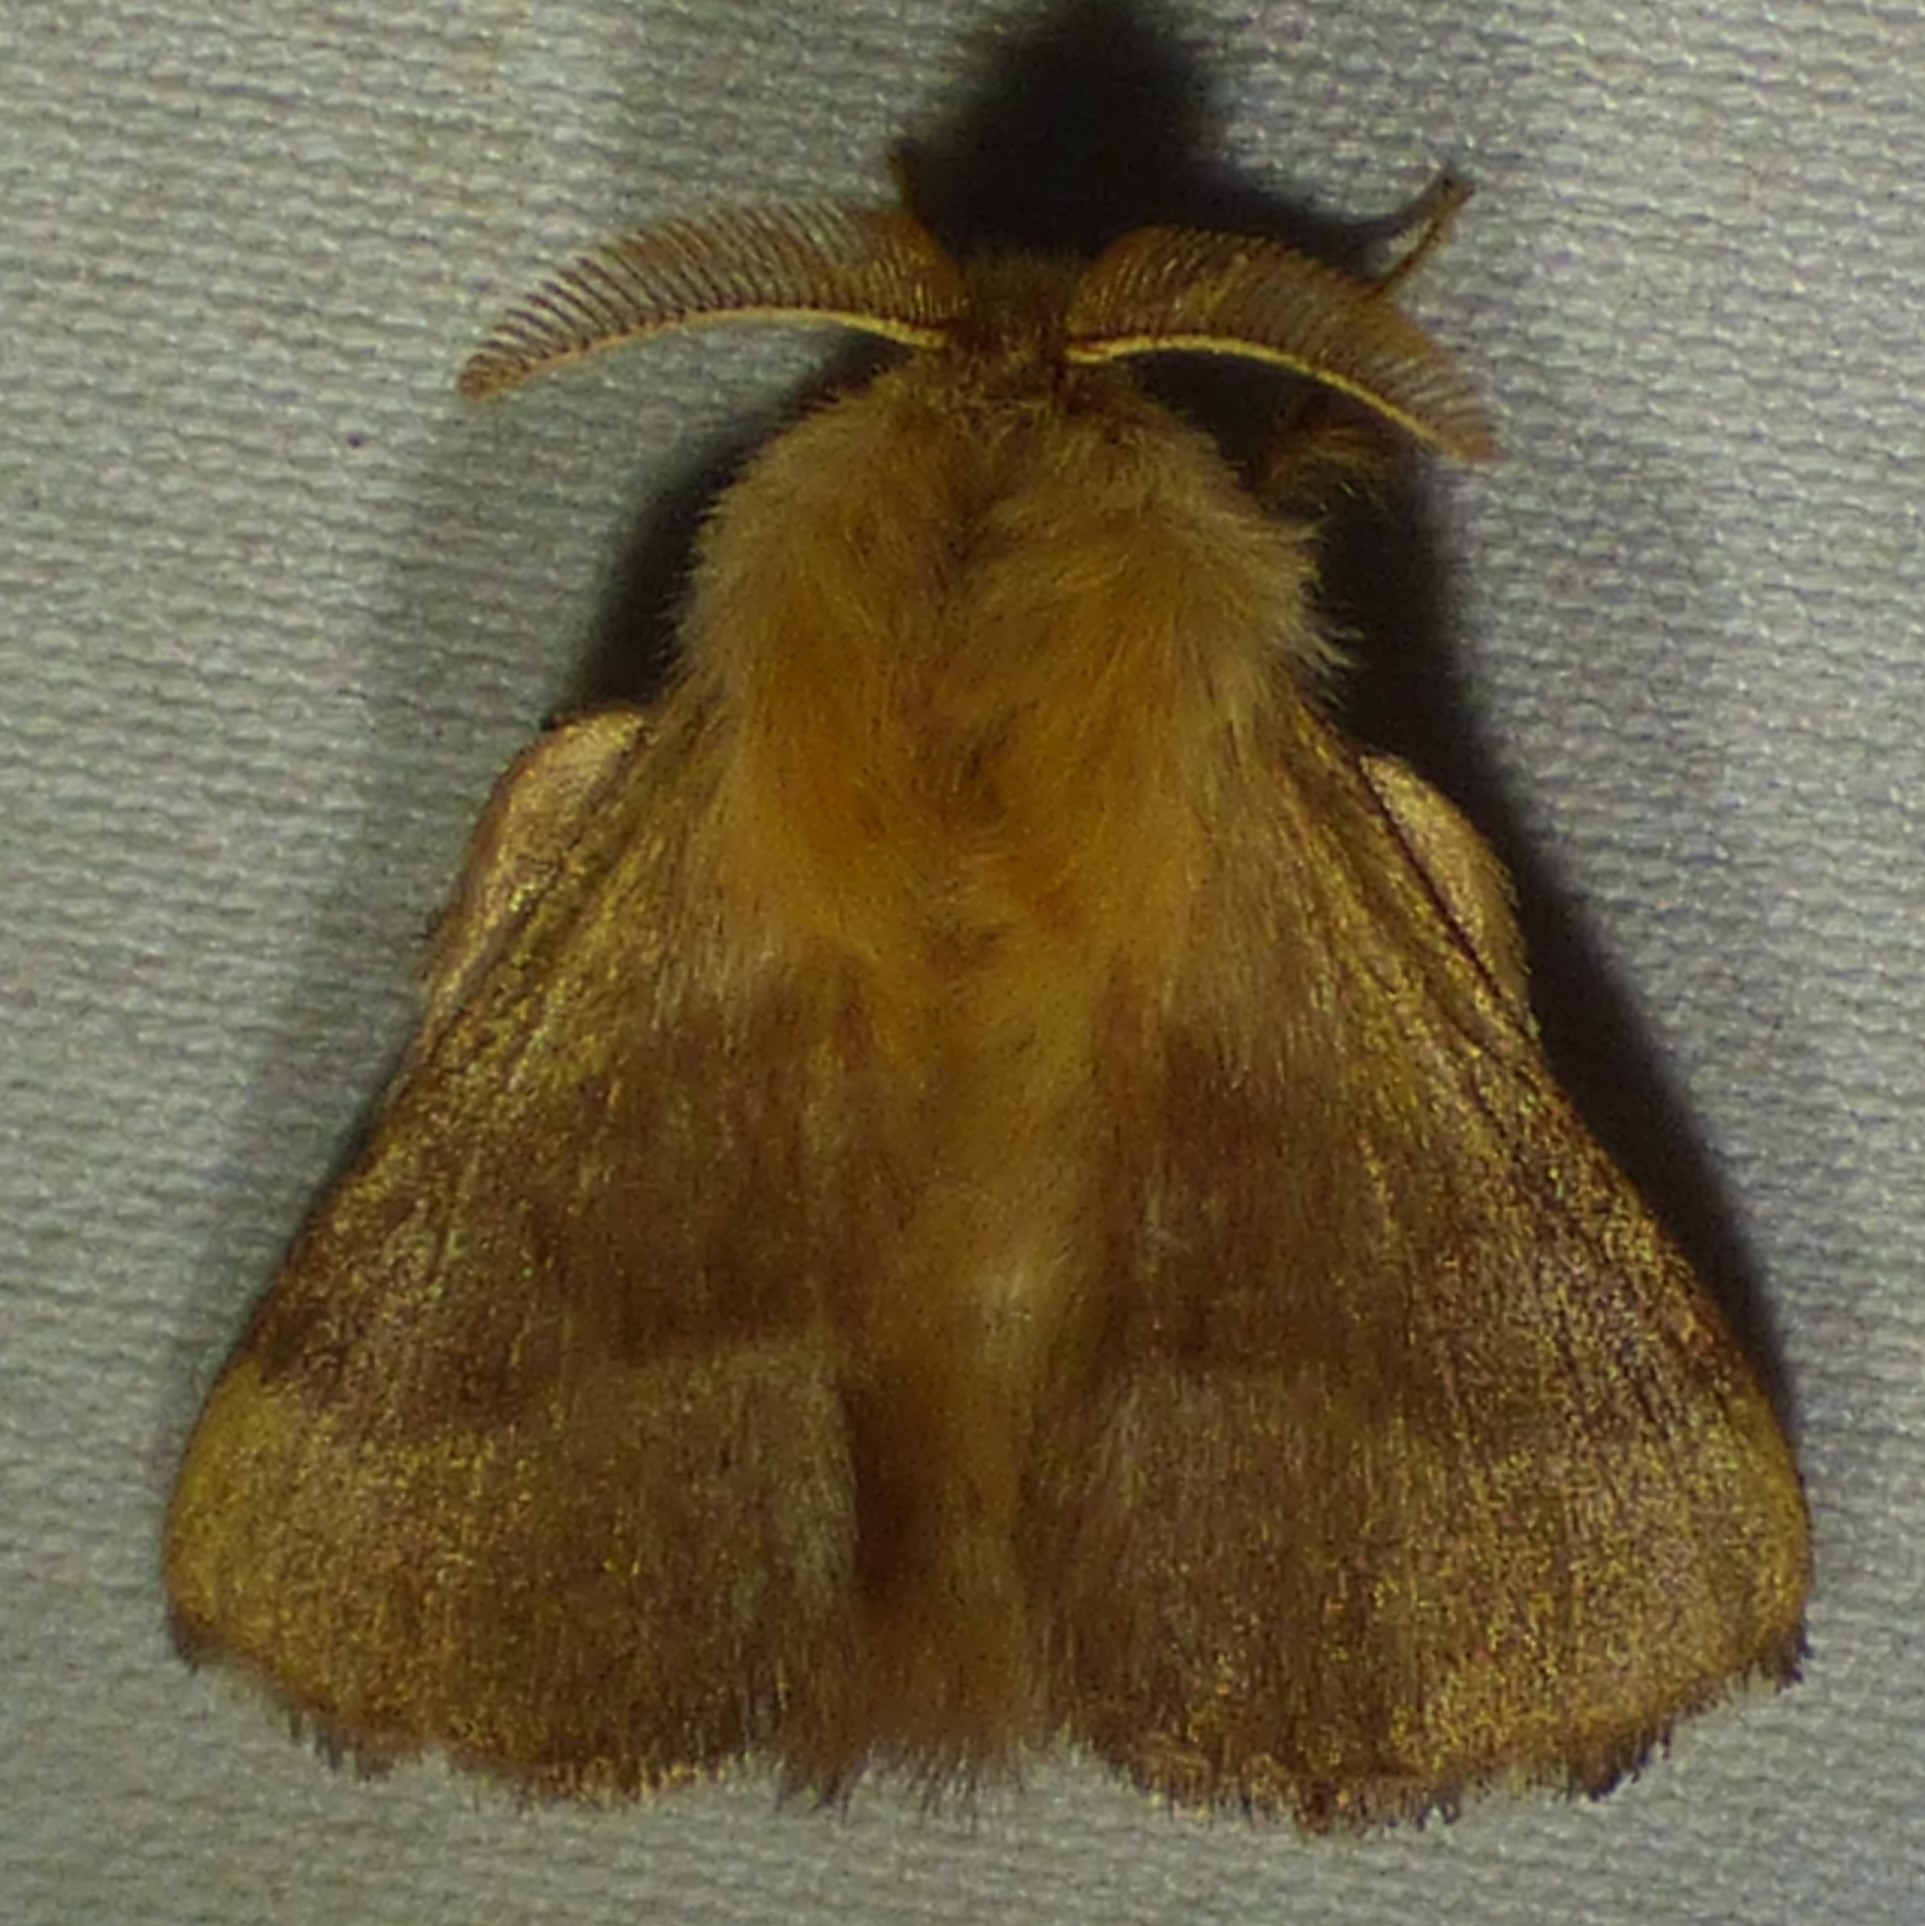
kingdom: Animalia
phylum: Arthropoda
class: Insecta
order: Lepidoptera
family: Lasiocampidae
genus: Malacosoma
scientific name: Malacosoma disstria
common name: Forest tent caterpillar
